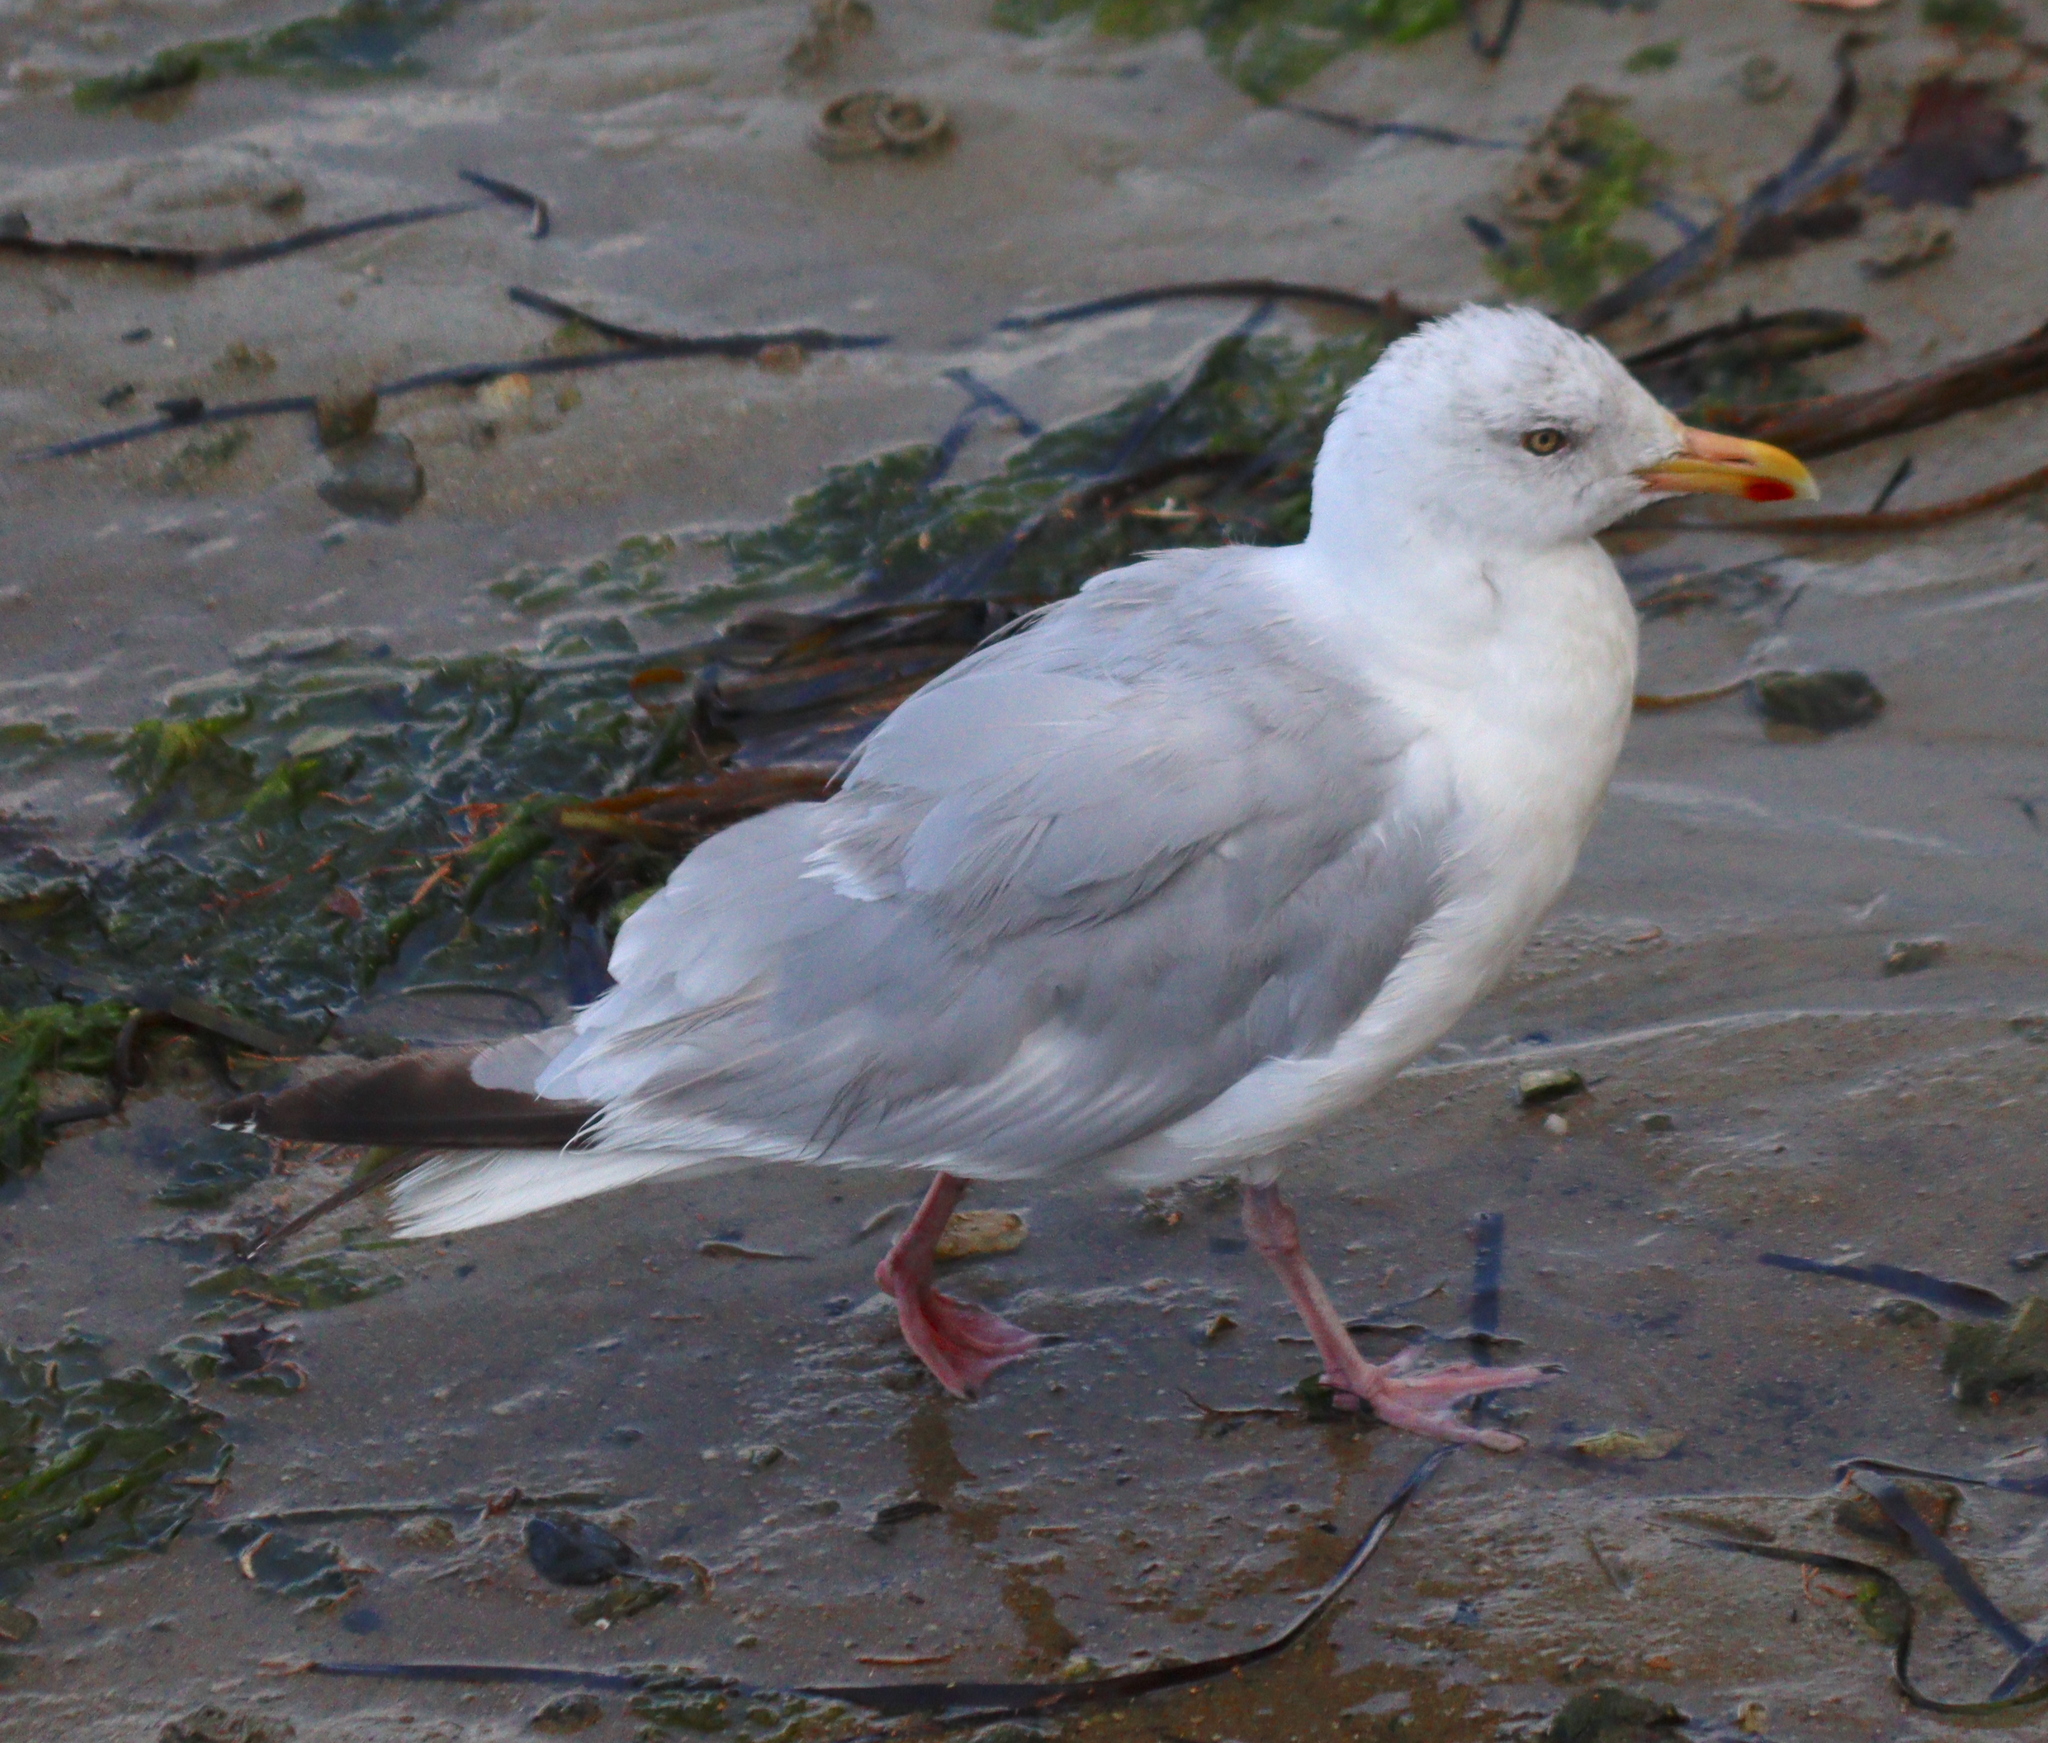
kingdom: Animalia
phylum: Chordata
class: Aves
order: Charadriiformes
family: Laridae
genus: Larus
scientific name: Larus argentatus
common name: Herring gull
